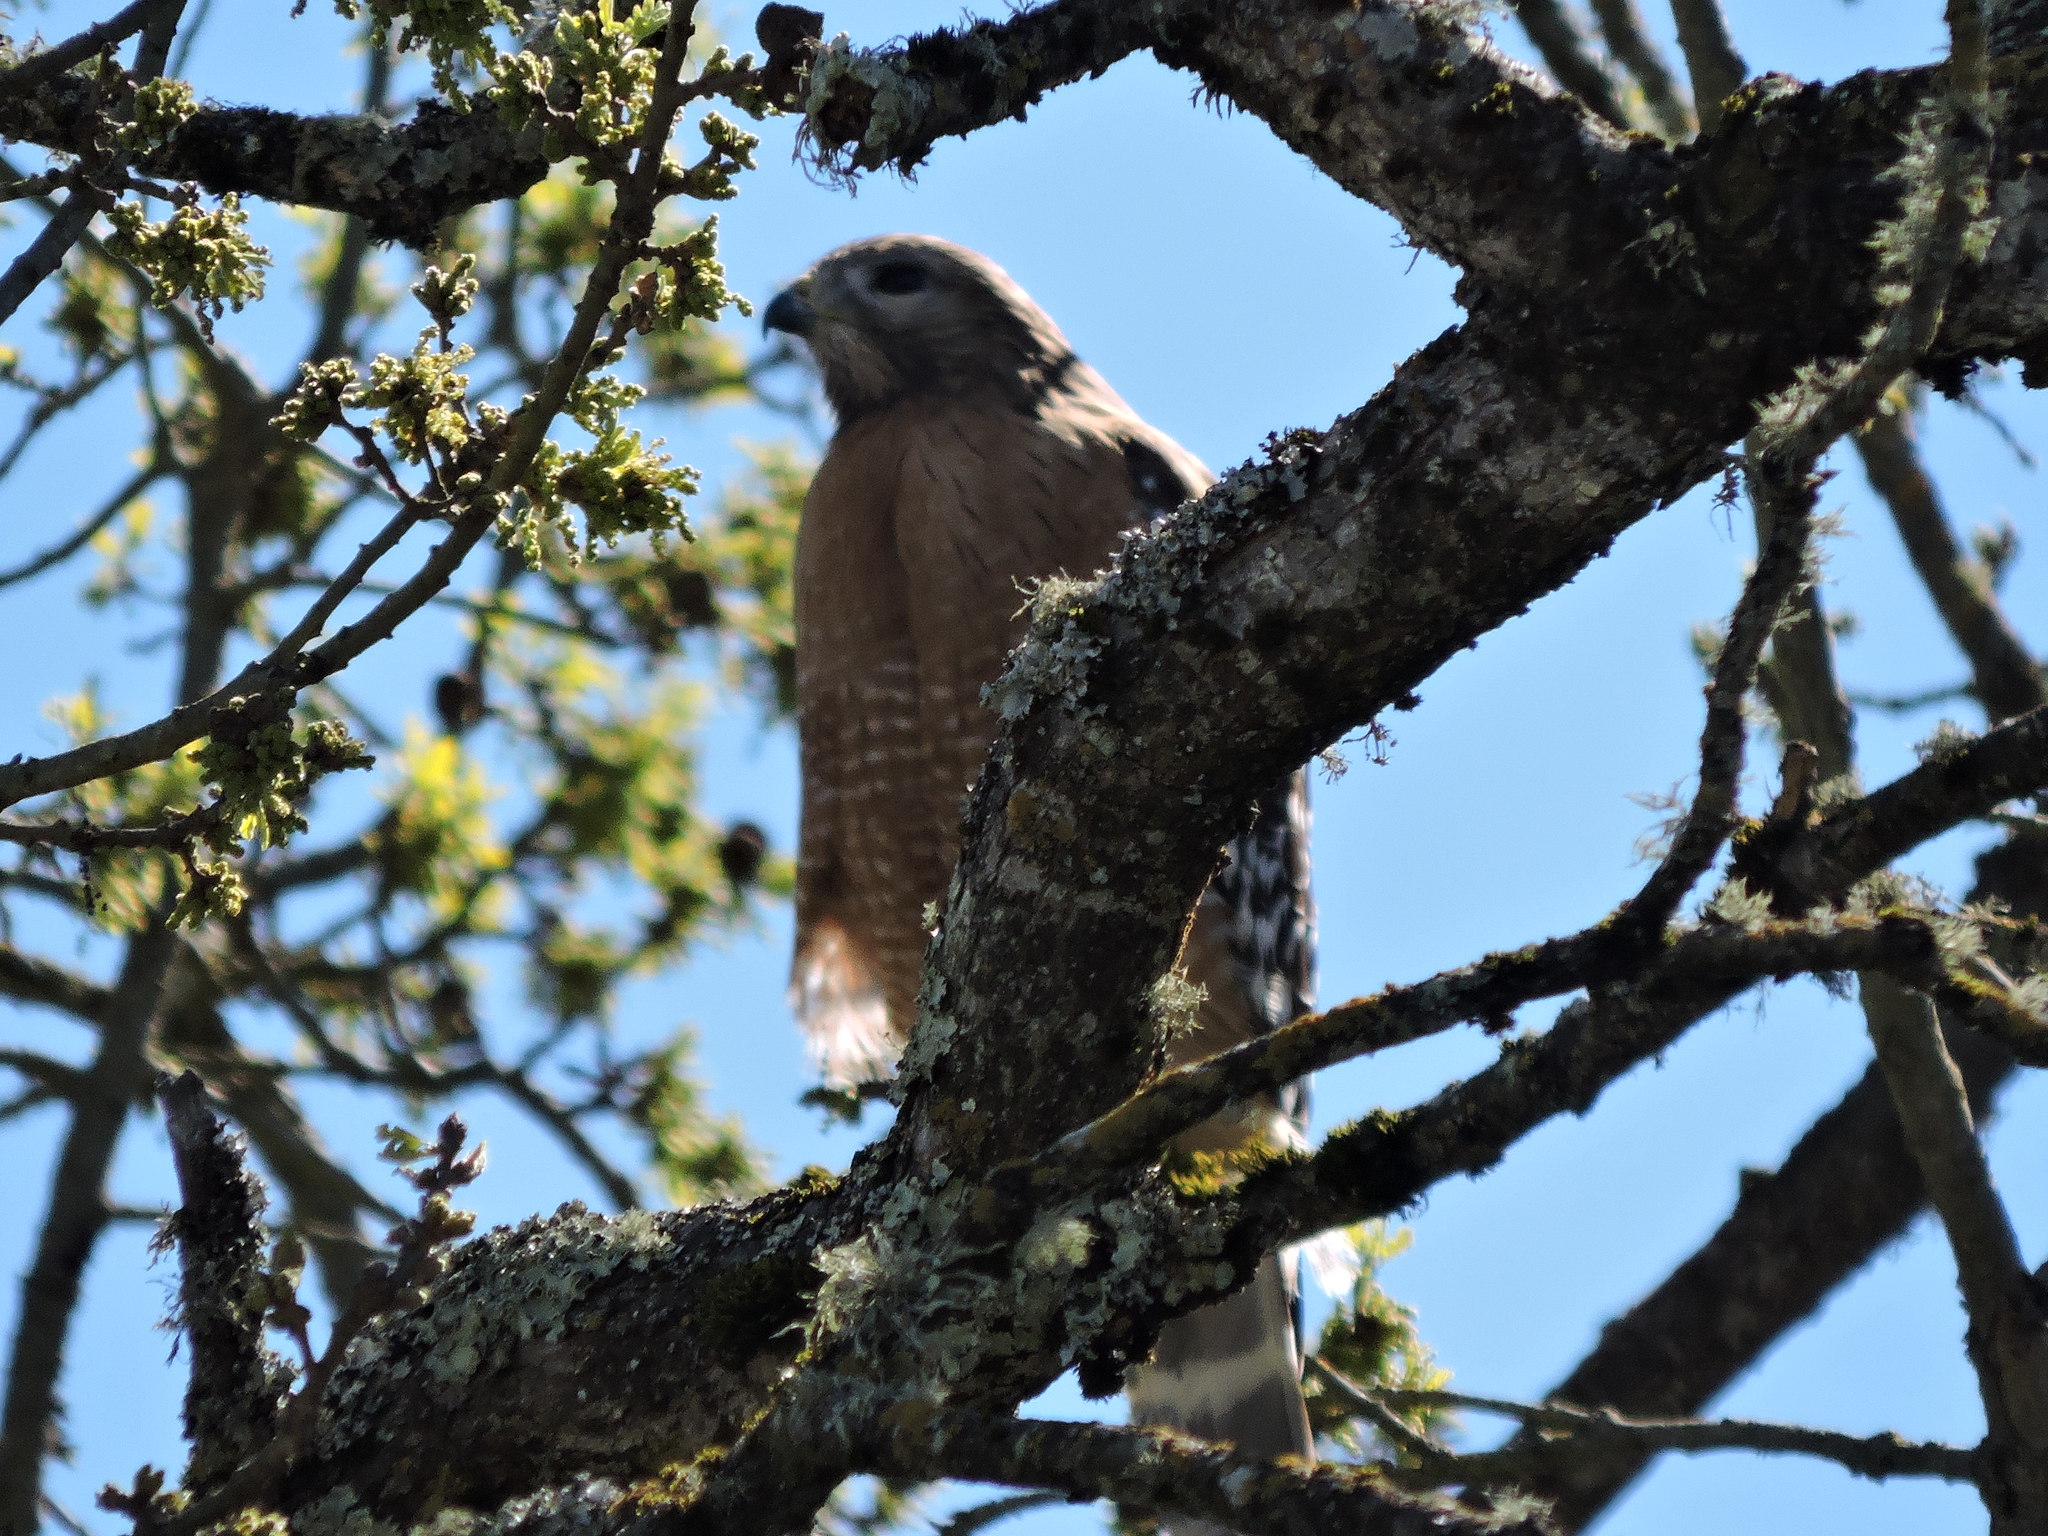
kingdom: Animalia
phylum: Chordata
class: Aves
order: Accipitriformes
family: Accipitridae
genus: Buteo
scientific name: Buteo lineatus
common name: Red-shouldered hawk
